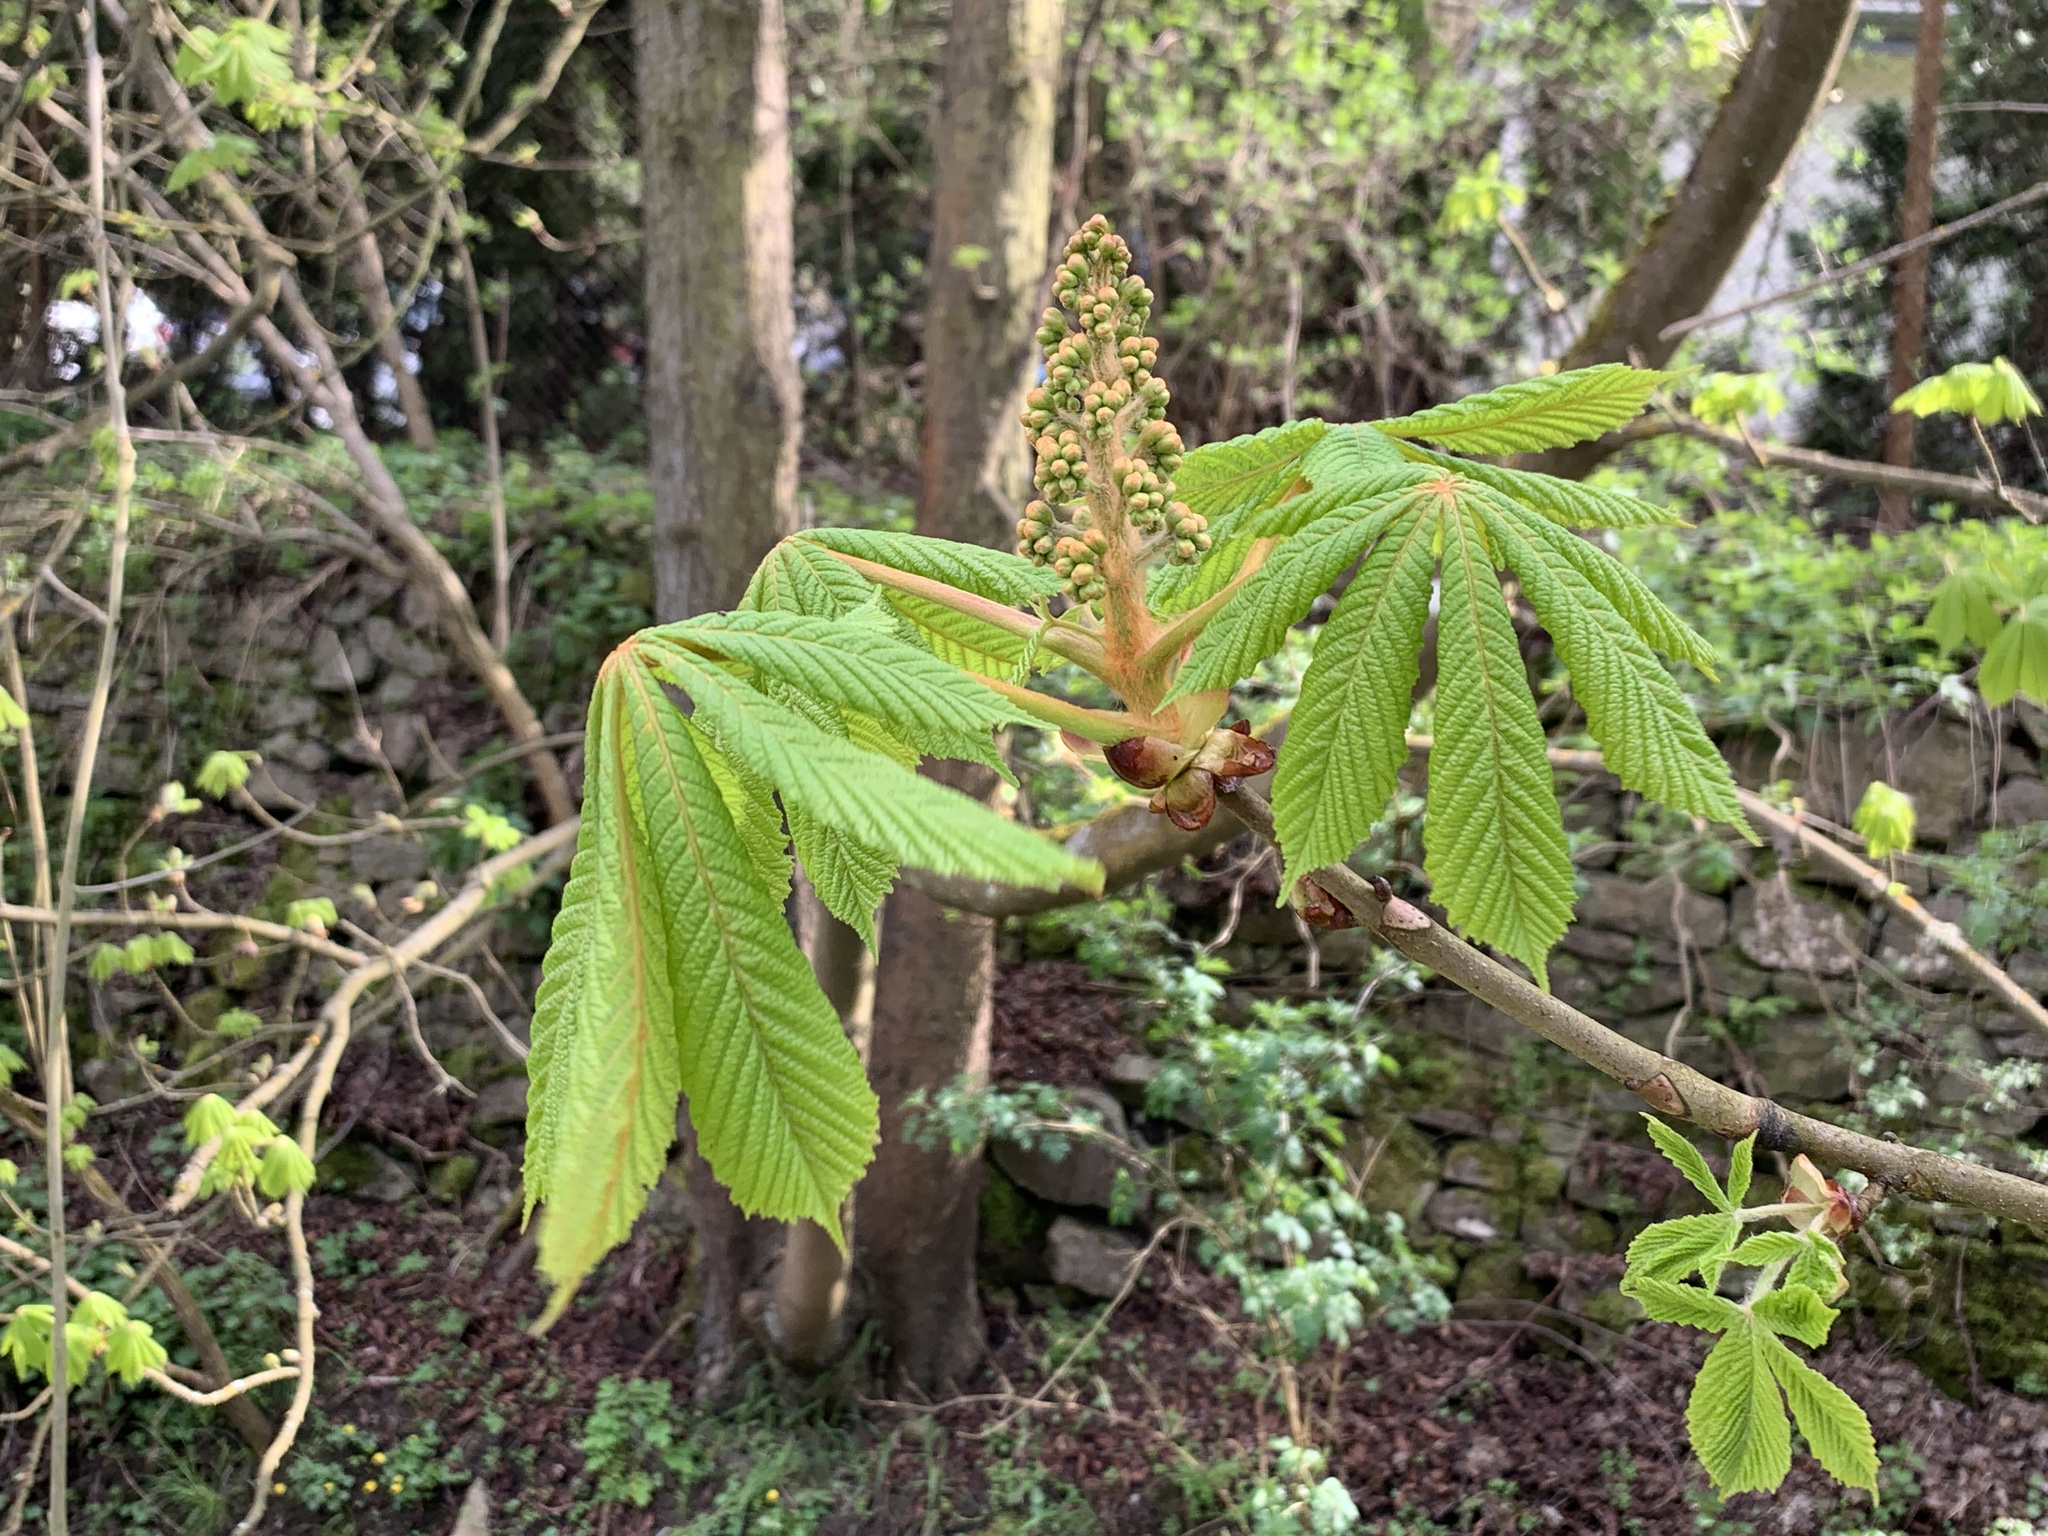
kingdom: Plantae
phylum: Tracheophyta
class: Magnoliopsida
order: Sapindales
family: Sapindaceae
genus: Aesculus
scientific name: Aesculus hippocastanum
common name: Horse-chestnut
